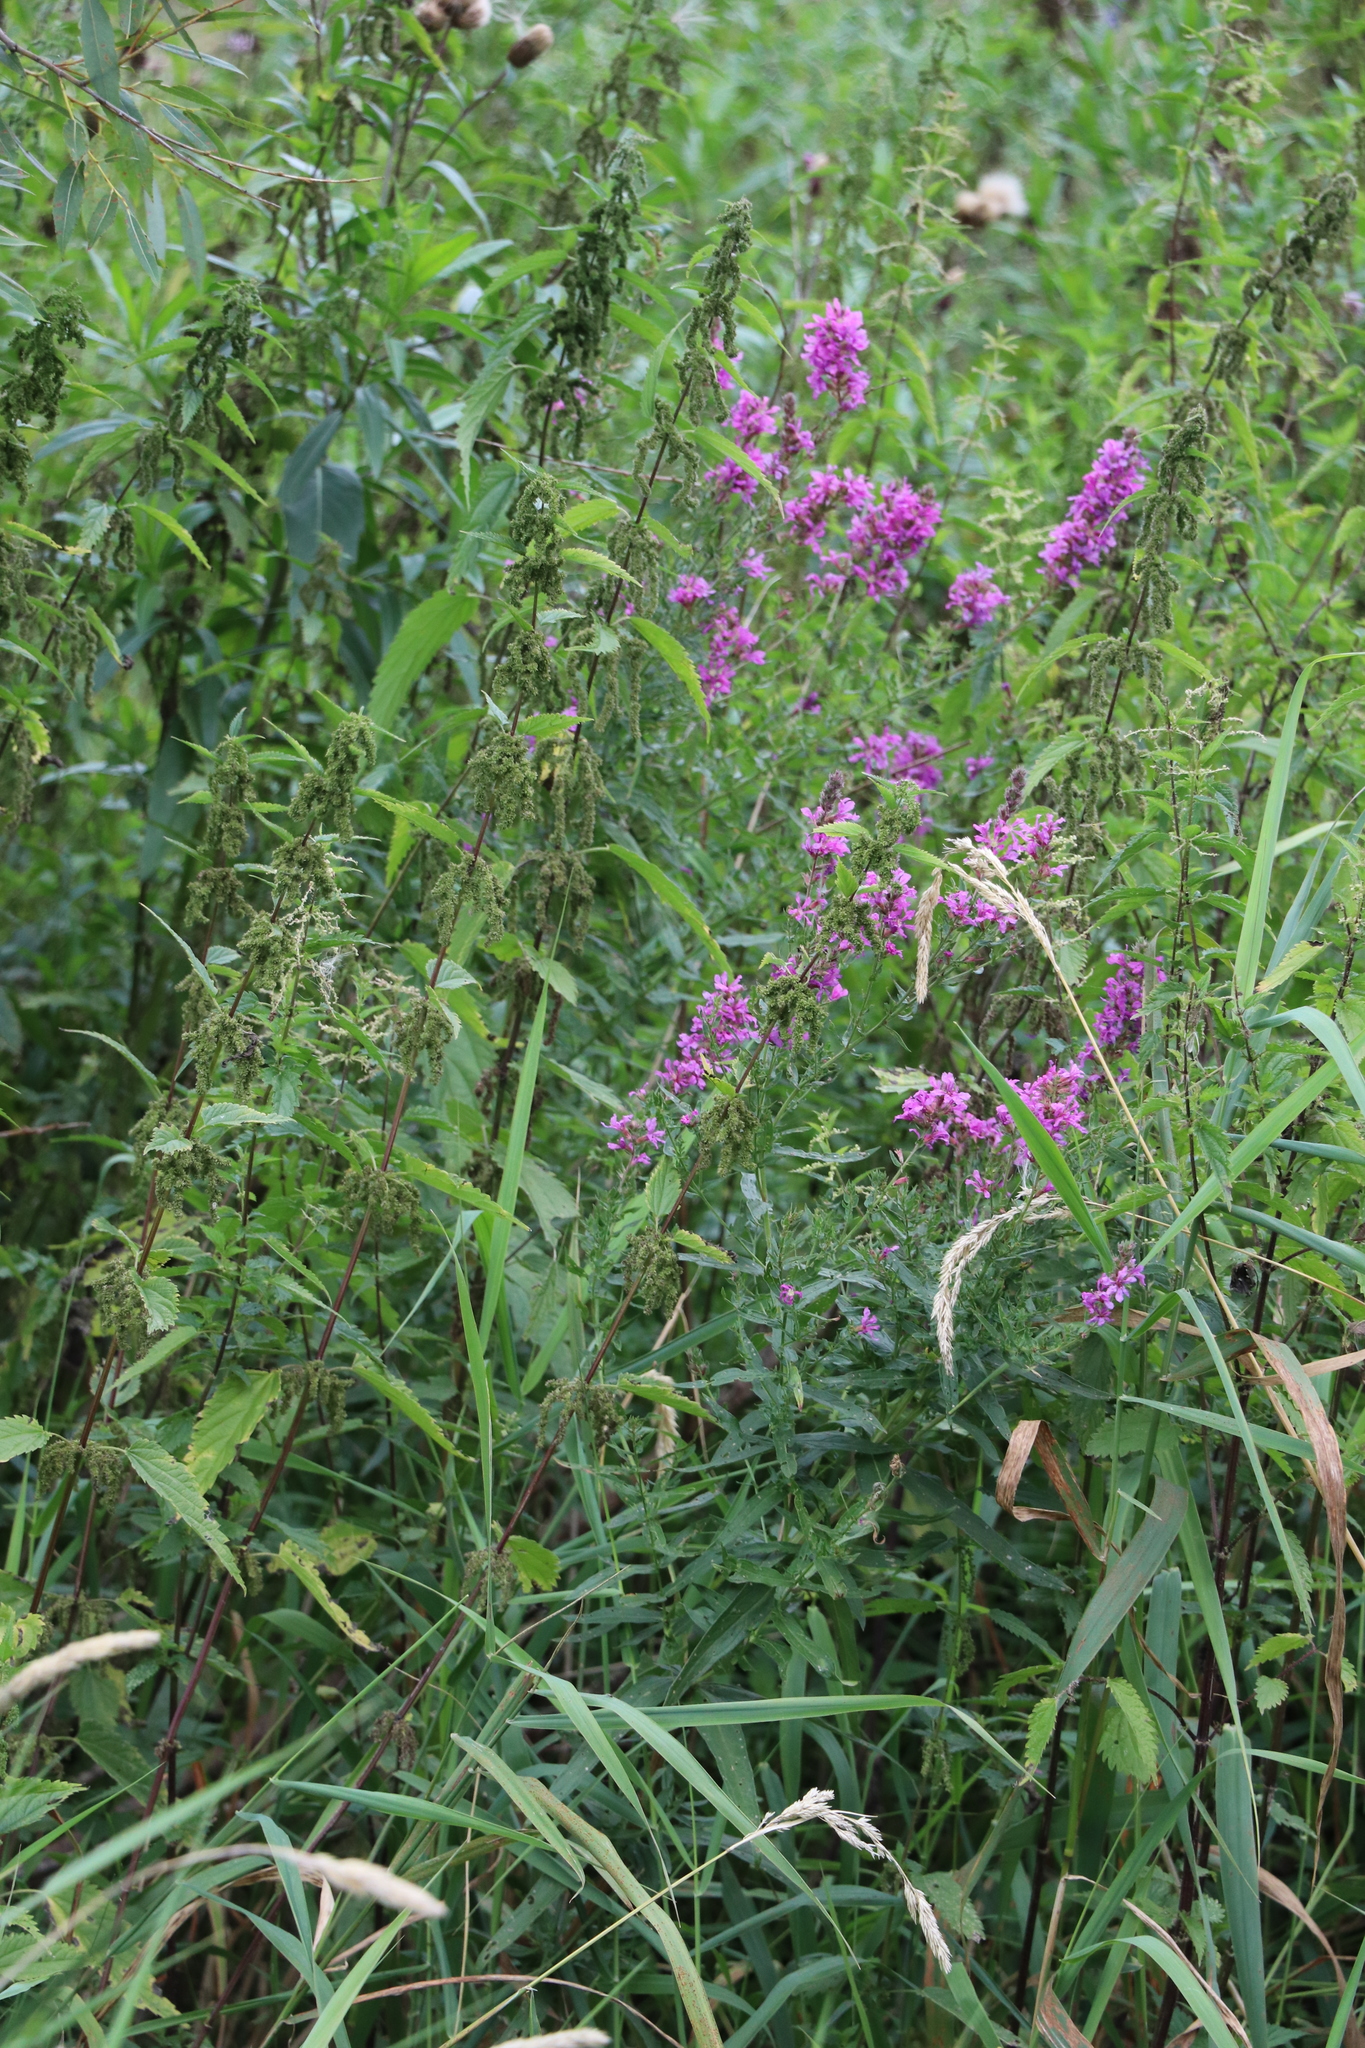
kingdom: Plantae
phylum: Tracheophyta
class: Magnoliopsida
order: Myrtales
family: Lythraceae
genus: Lythrum
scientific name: Lythrum salicaria
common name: Purple loosestrife
